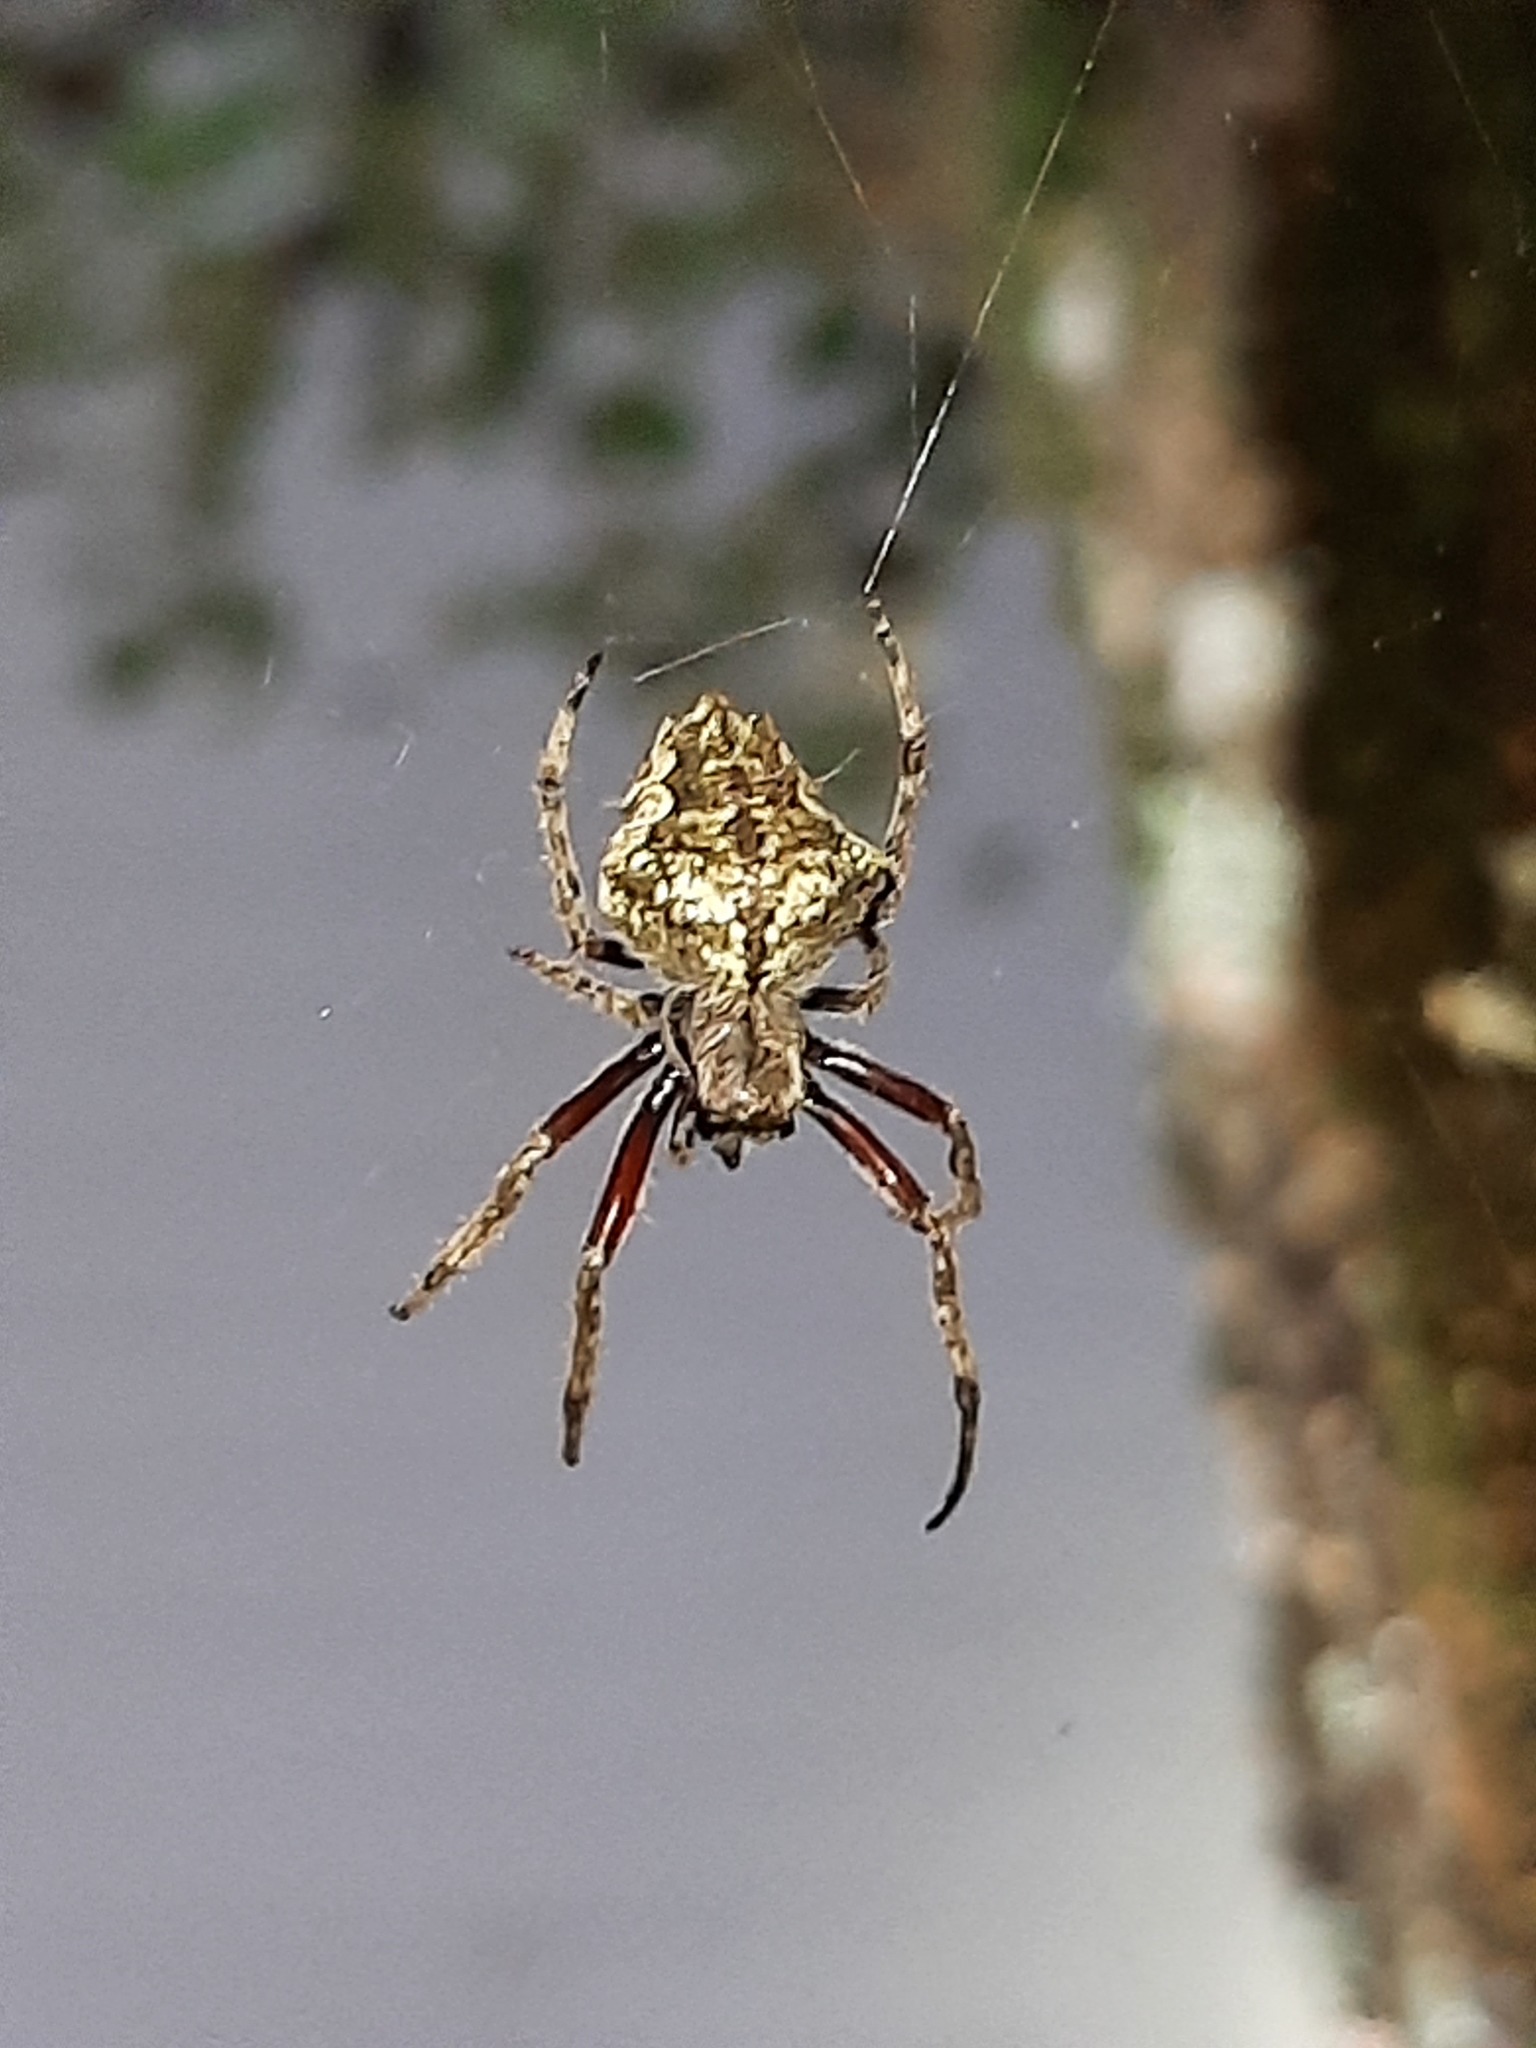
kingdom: Animalia
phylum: Arthropoda
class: Arachnida
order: Araneae
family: Araneidae
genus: Eriophora
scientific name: Eriophora pustulosa
